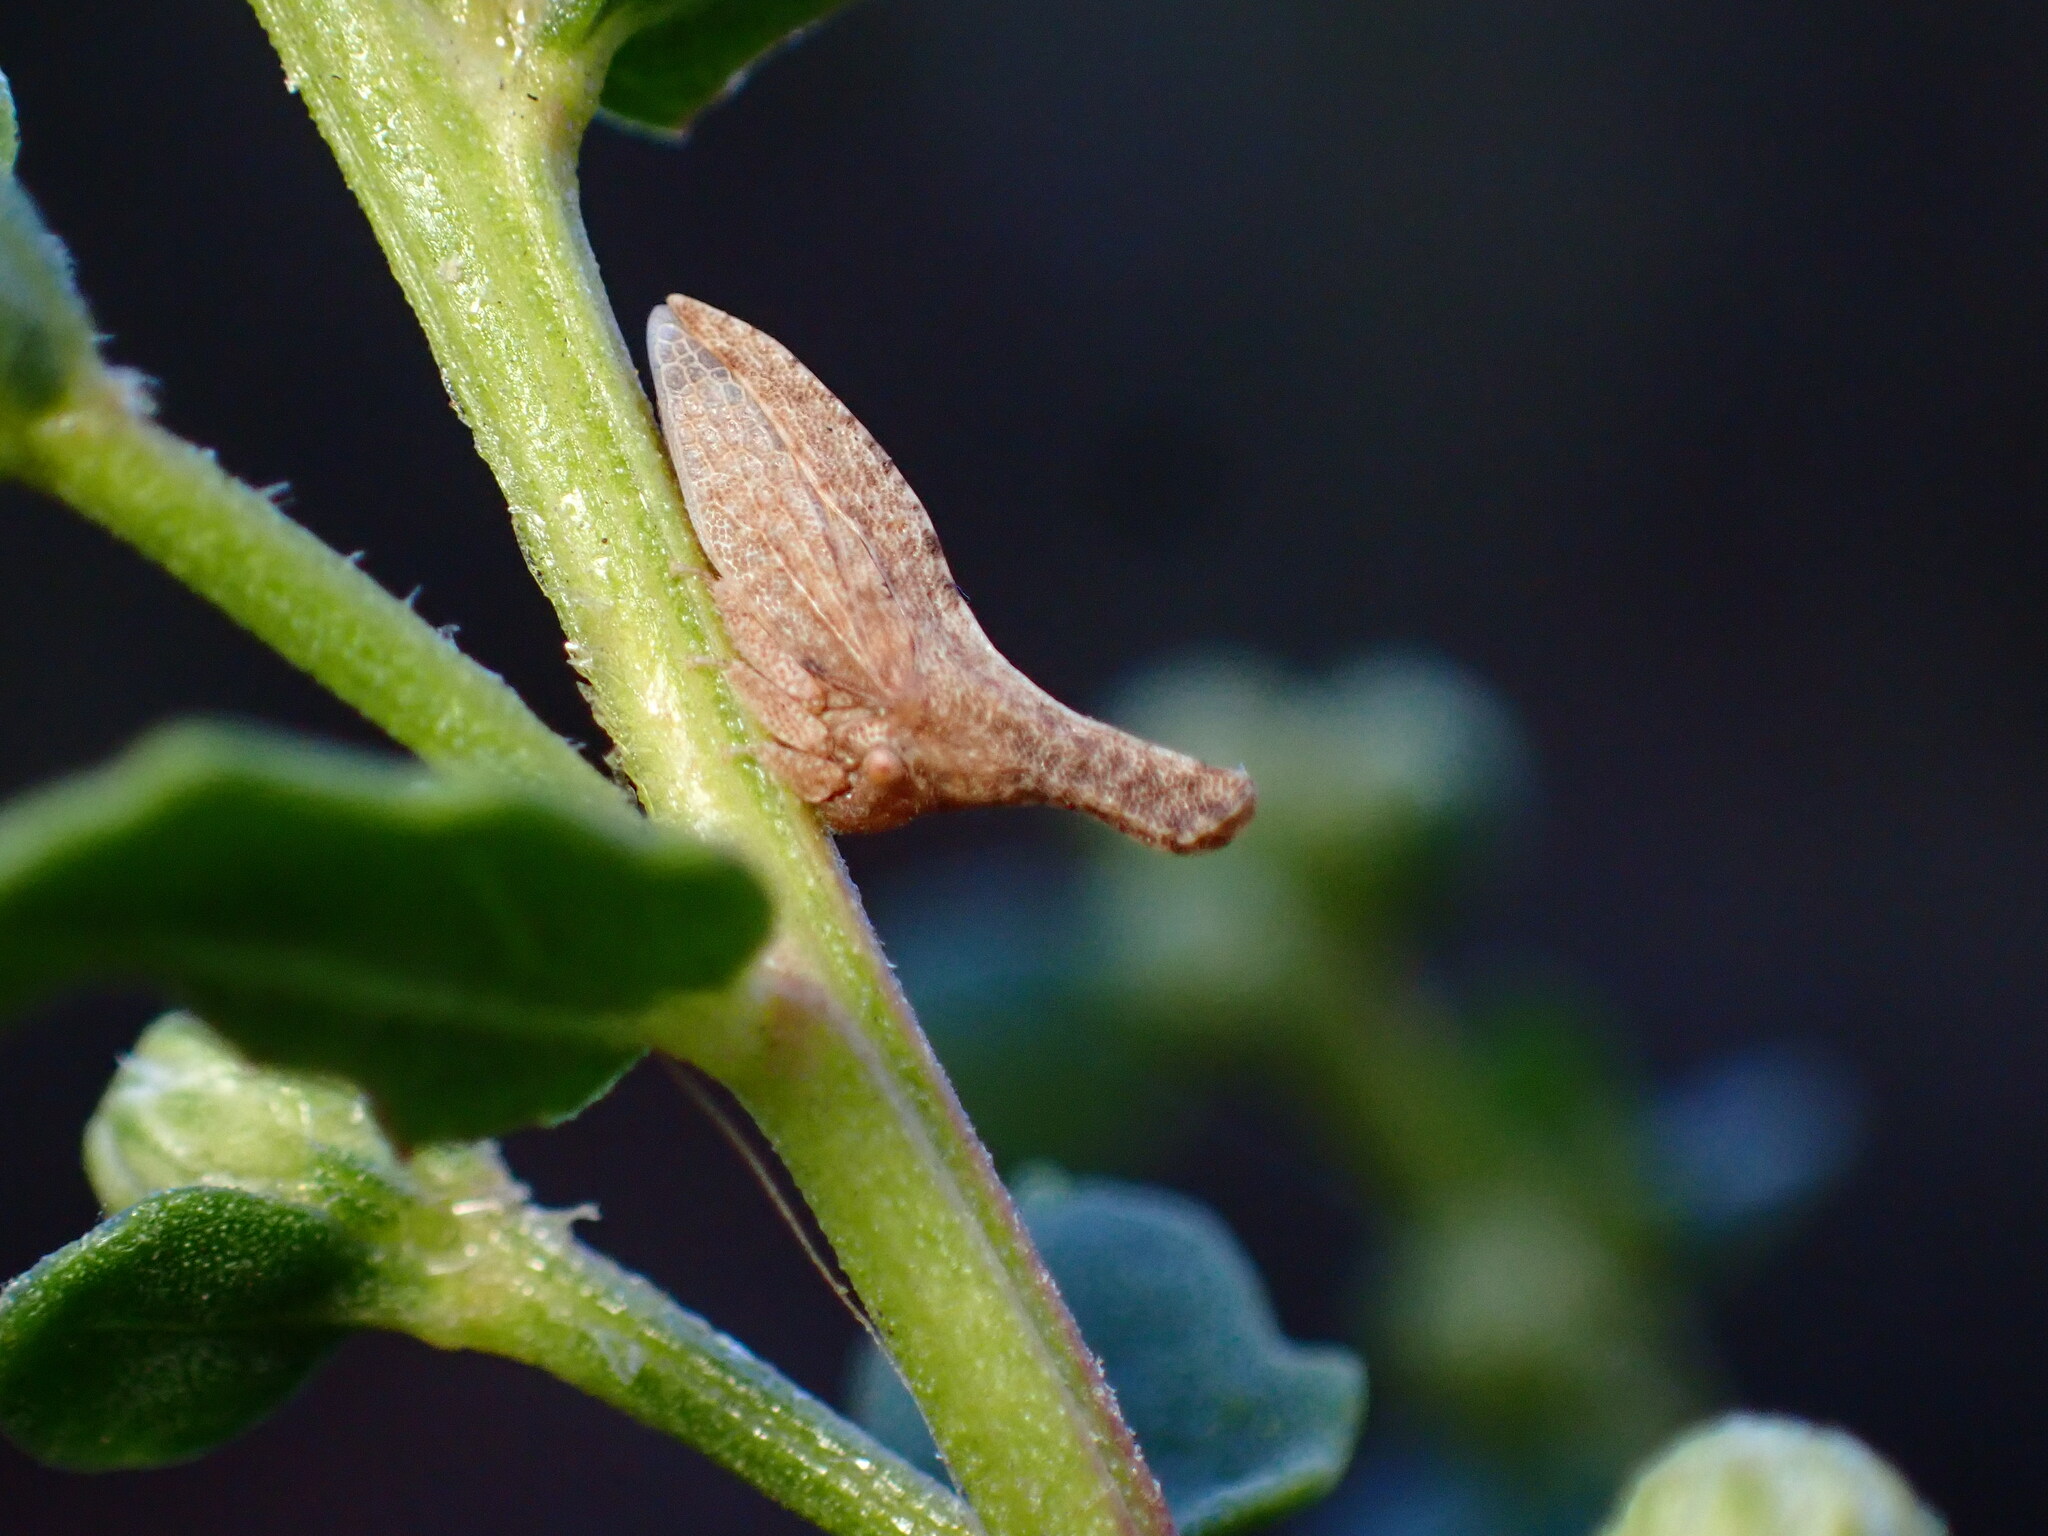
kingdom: Animalia
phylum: Arthropoda
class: Insecta
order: Hemiptera
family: Membracidae
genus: Philya
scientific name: Philya californensis
